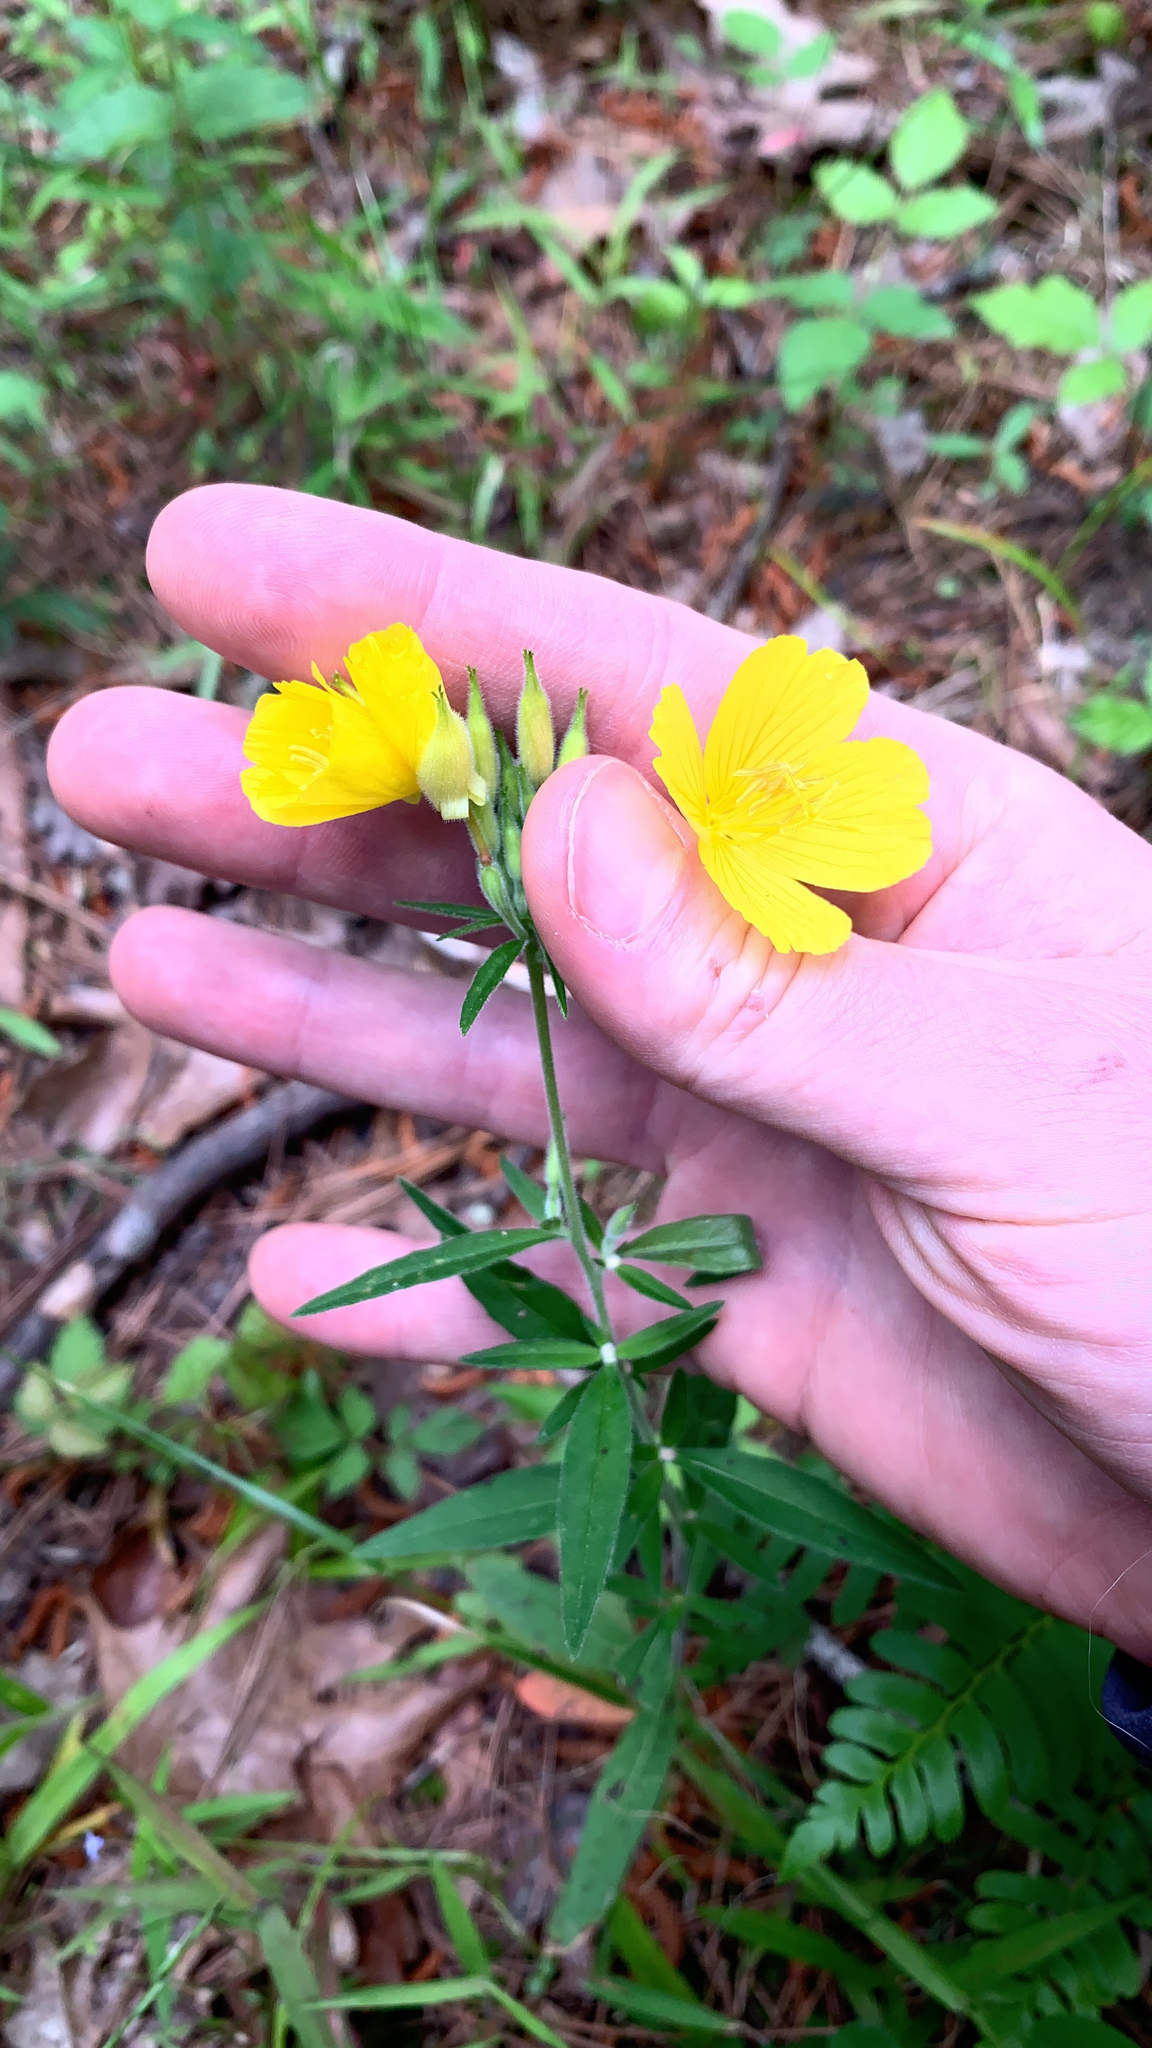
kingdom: Plantae
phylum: Tracheophyta
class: Magnoliopsida
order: Myrtales
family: Onagraceae
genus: Oenothera
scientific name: Oenothera fruticosa
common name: Southern sundrops
